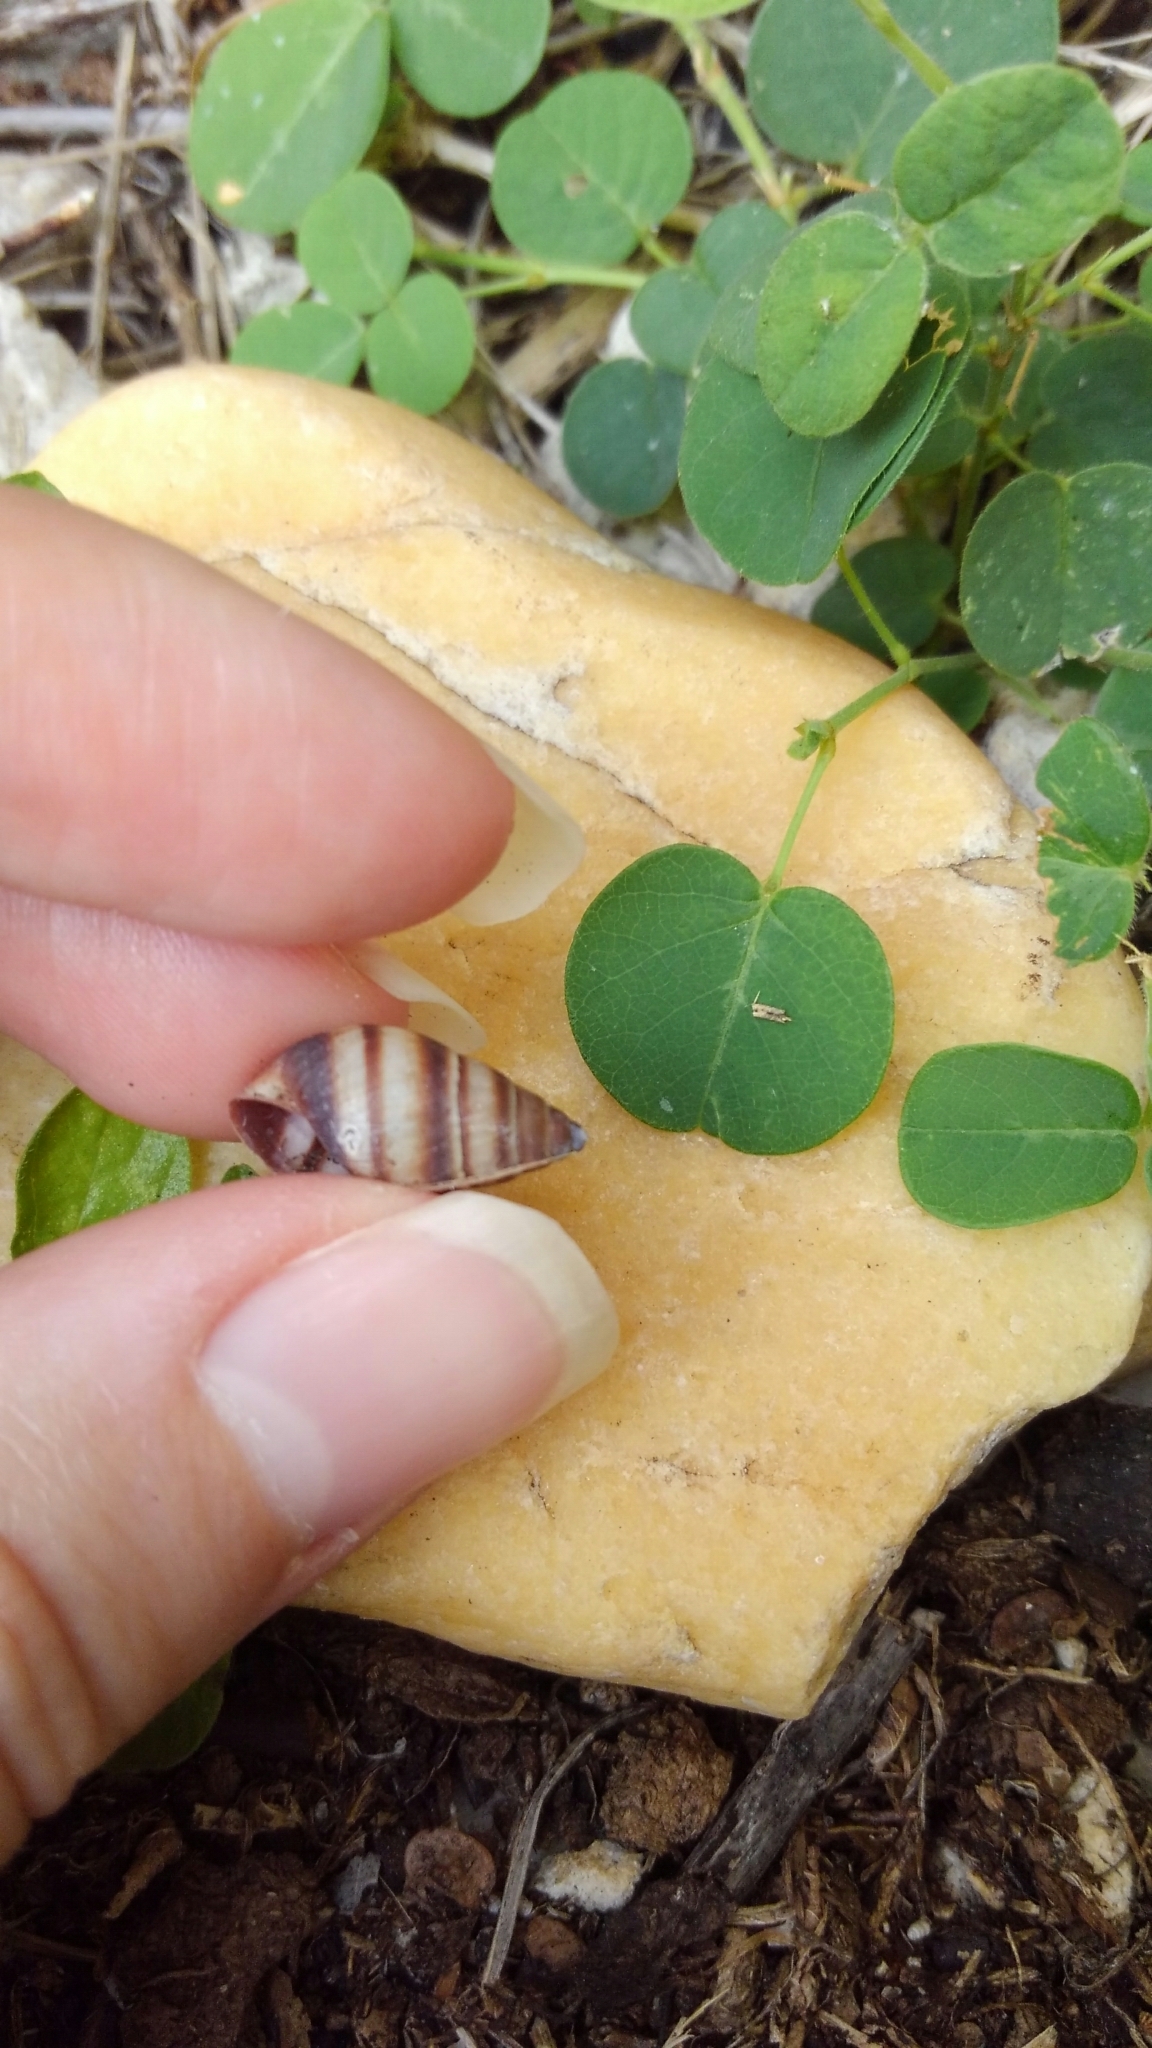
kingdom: Animalia
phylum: Mollusca
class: Gastropoda
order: Stylommatophora
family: Bulimulidae
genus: Bulimulus
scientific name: Bulimulus guadalupensis
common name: West indian bulimulus
